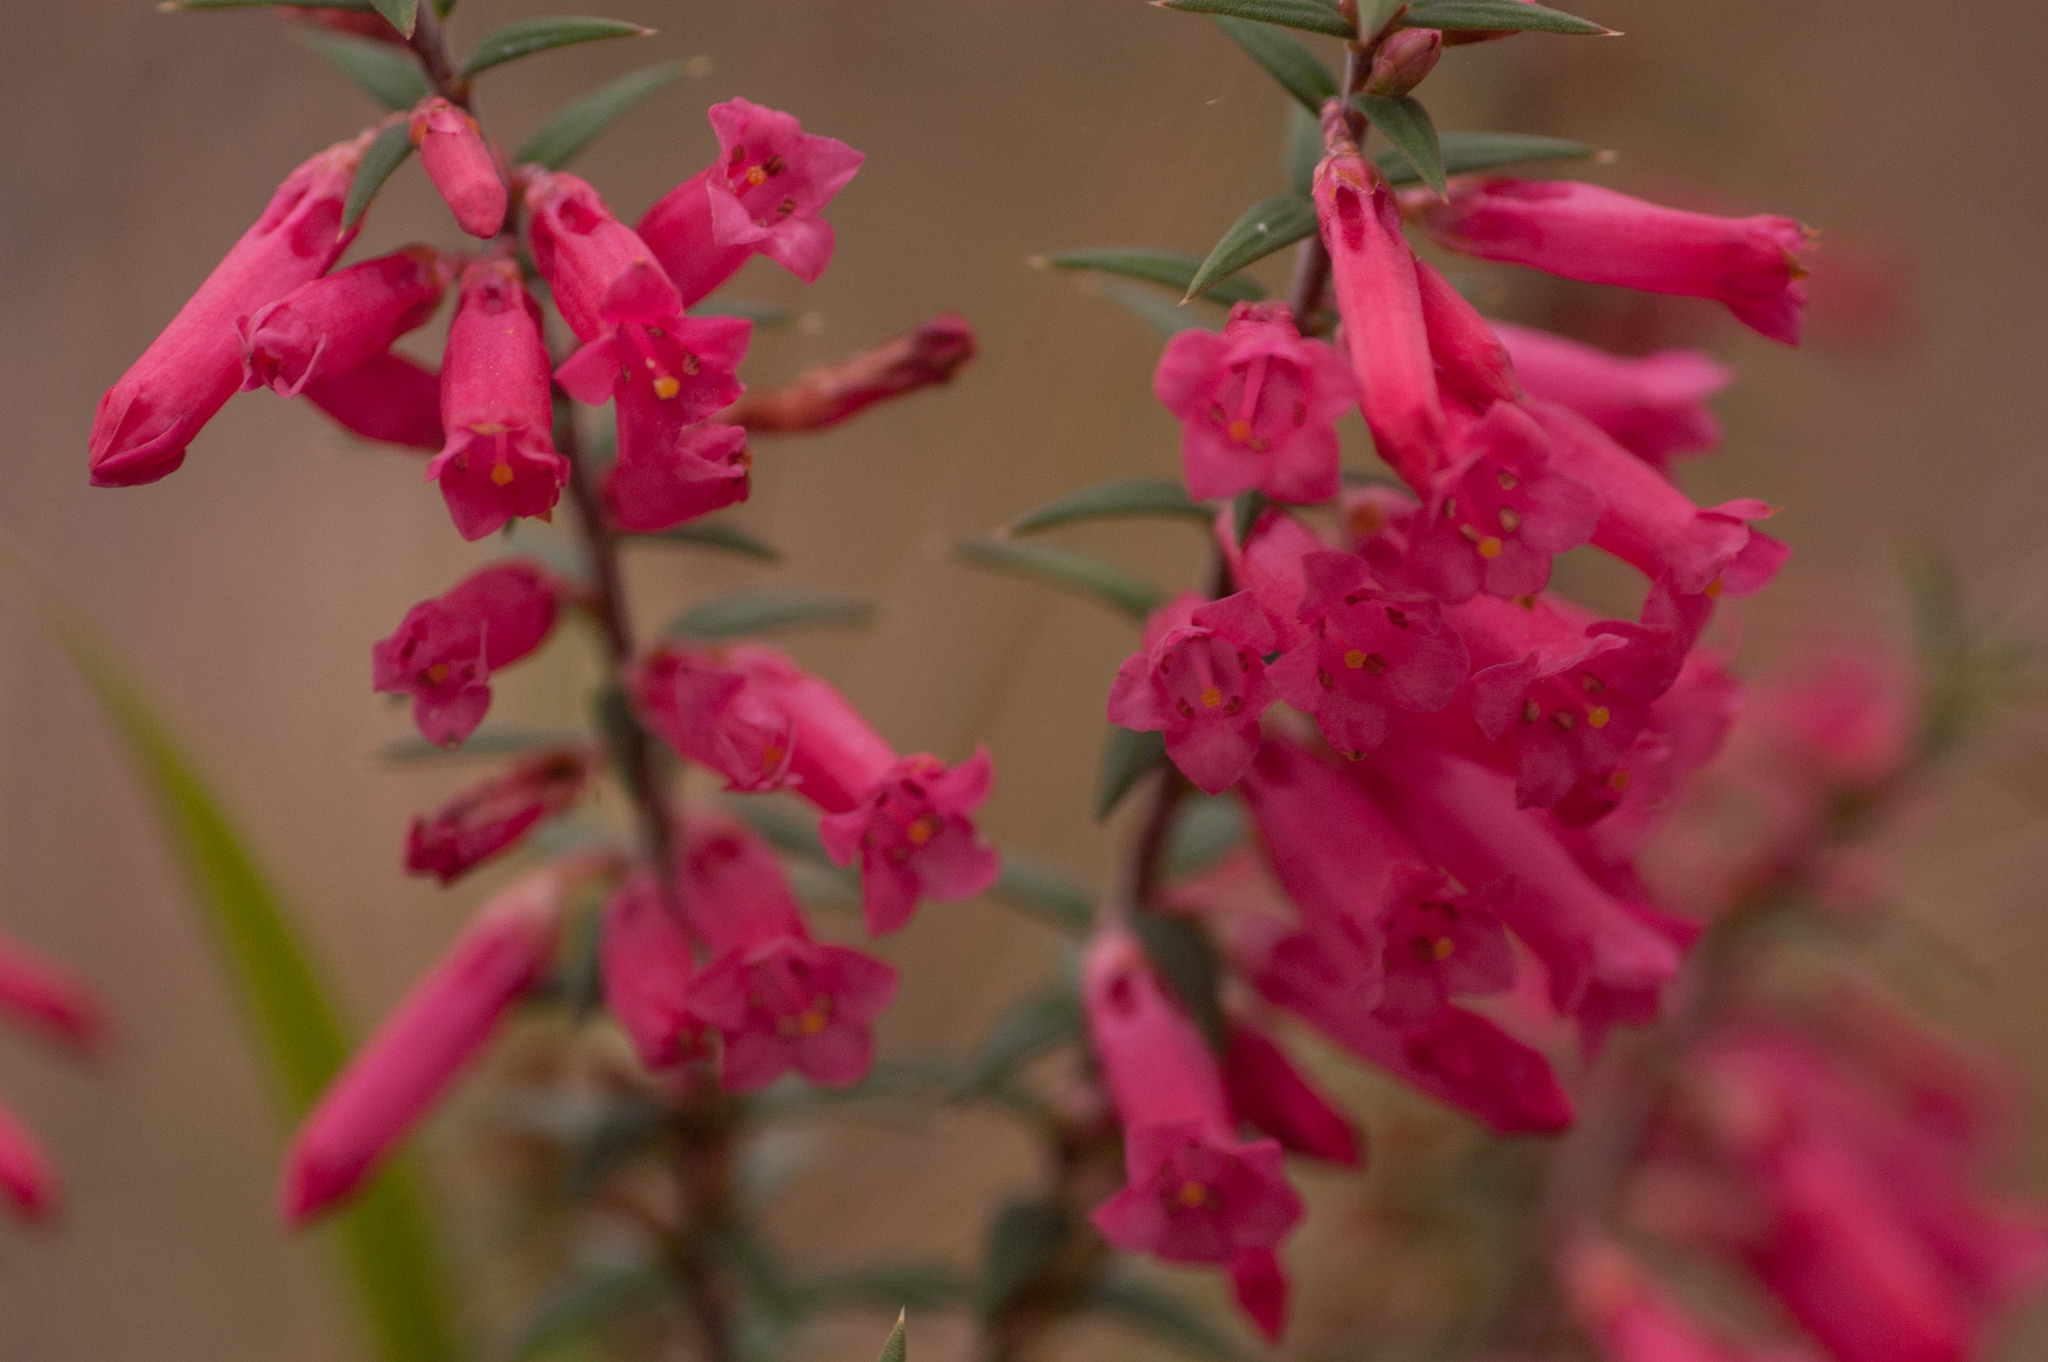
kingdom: Plantae
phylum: Tracheophyta
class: Magnoliopsida
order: Ericales
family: Ericaceae
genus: Epacris
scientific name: Epacris impressa
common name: Common-heath
